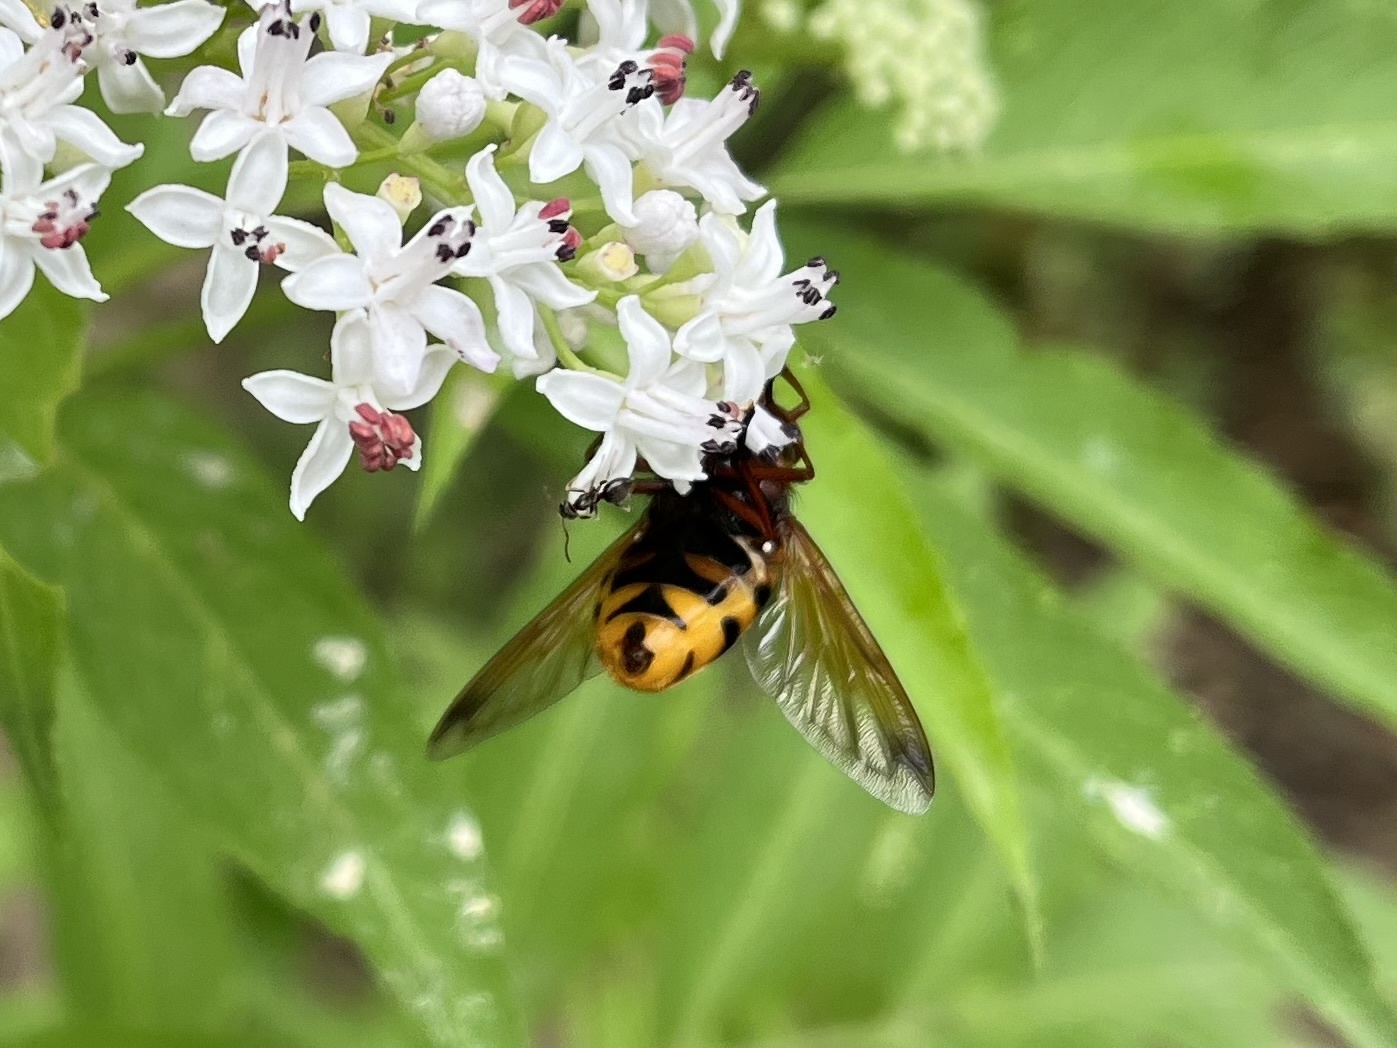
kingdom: Animalia
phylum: Arthropoda
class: Insecta
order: Diptera
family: Syrphidae
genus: Volucella
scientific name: Volucella zonaria
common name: Hornet hoverfly
